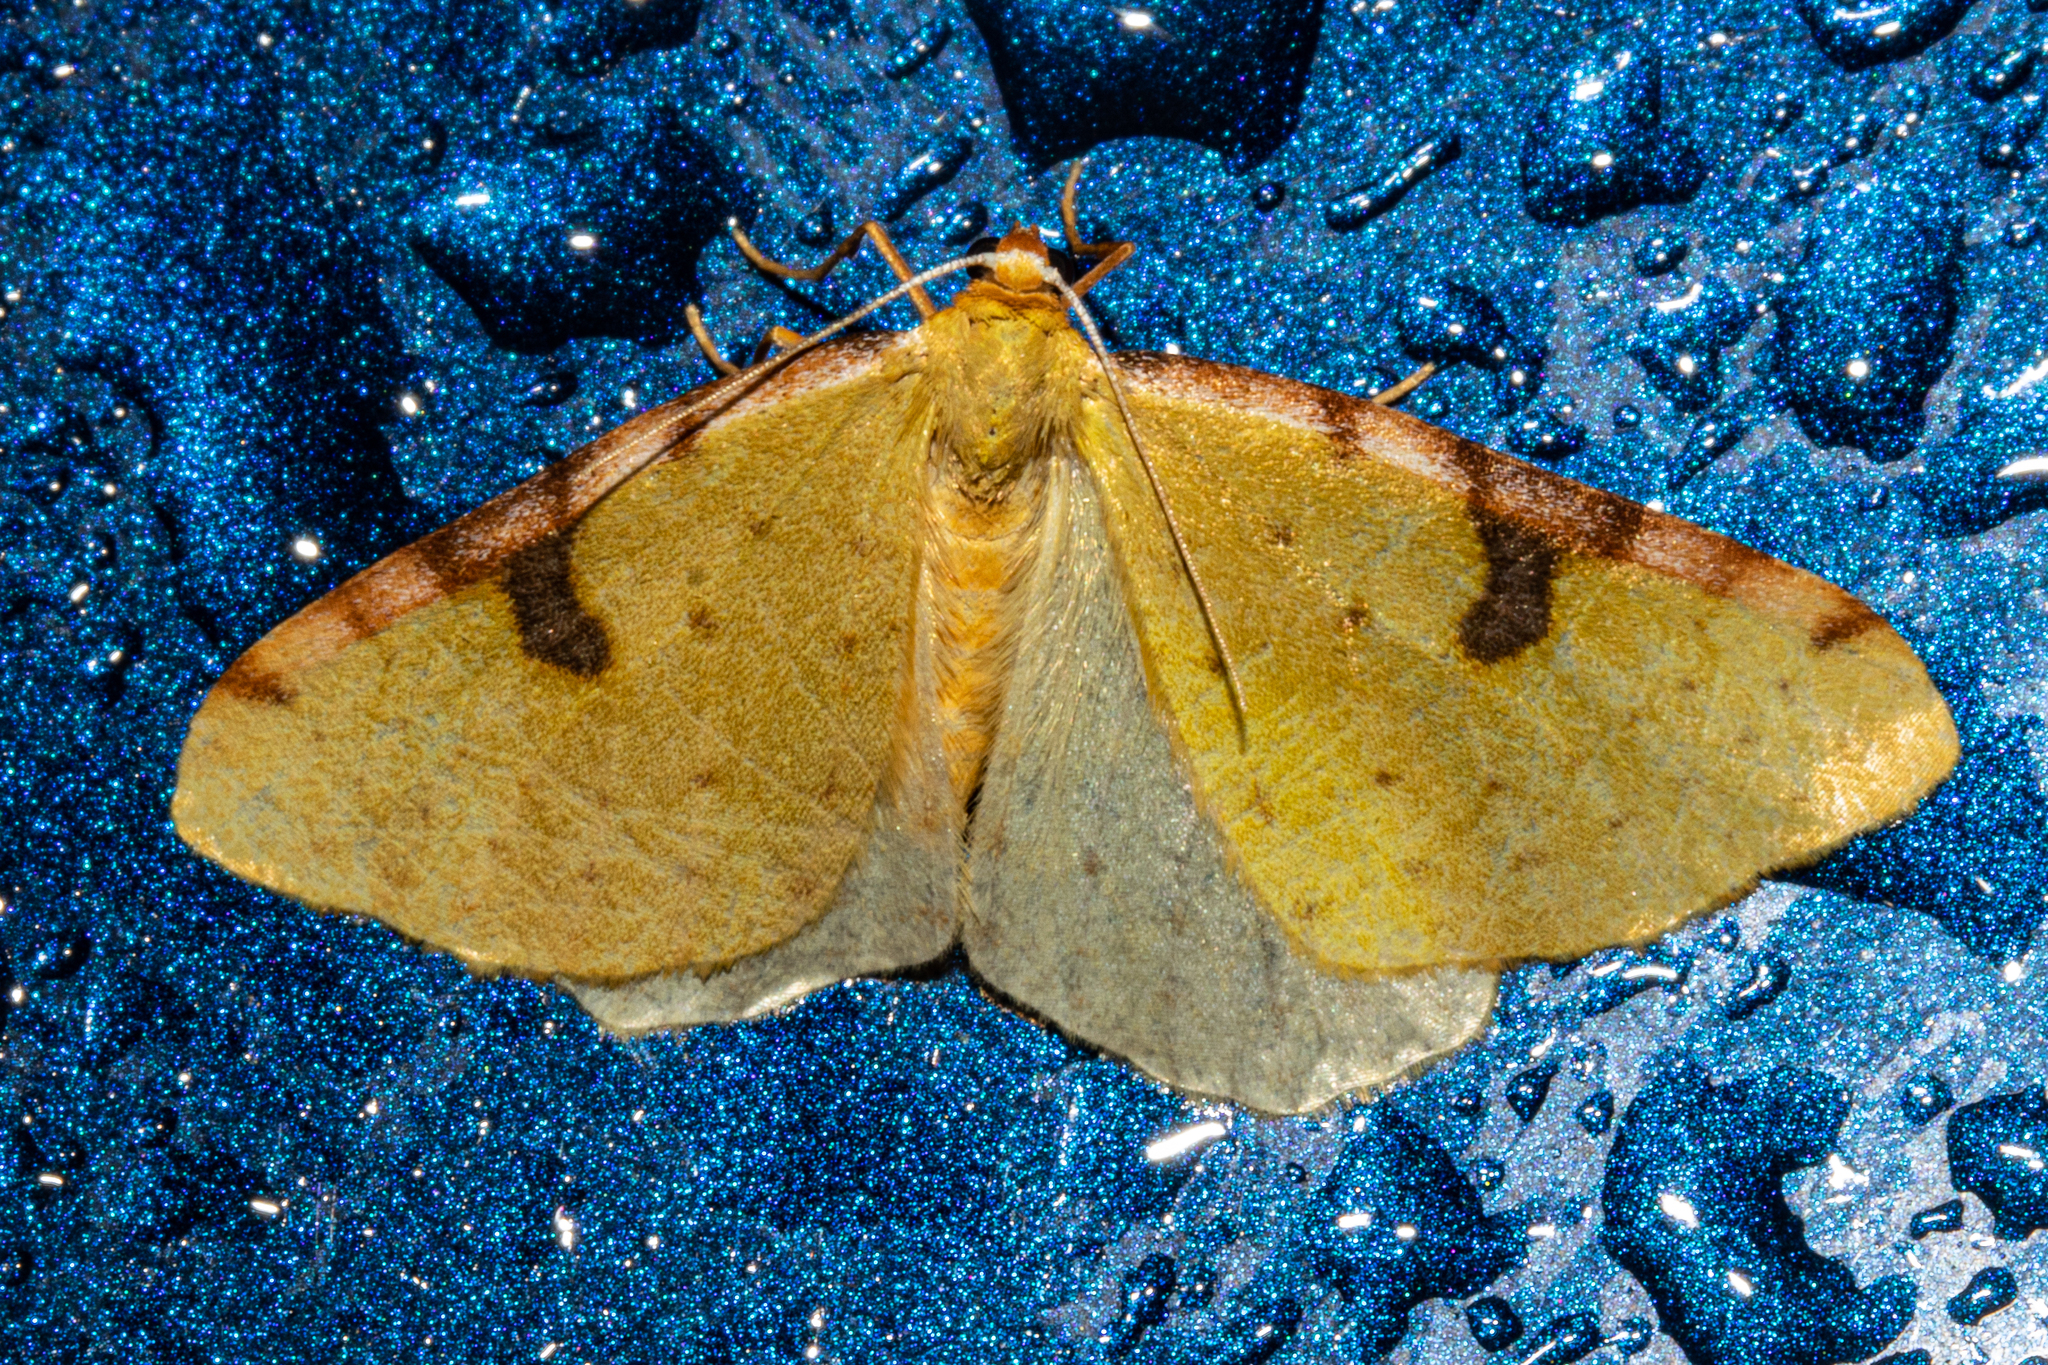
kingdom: Animalia
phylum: Arthropoda
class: Insecta
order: Lepidoptera
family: Geometridae
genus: Epiphryne
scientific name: Epiphryne xanthaspis
